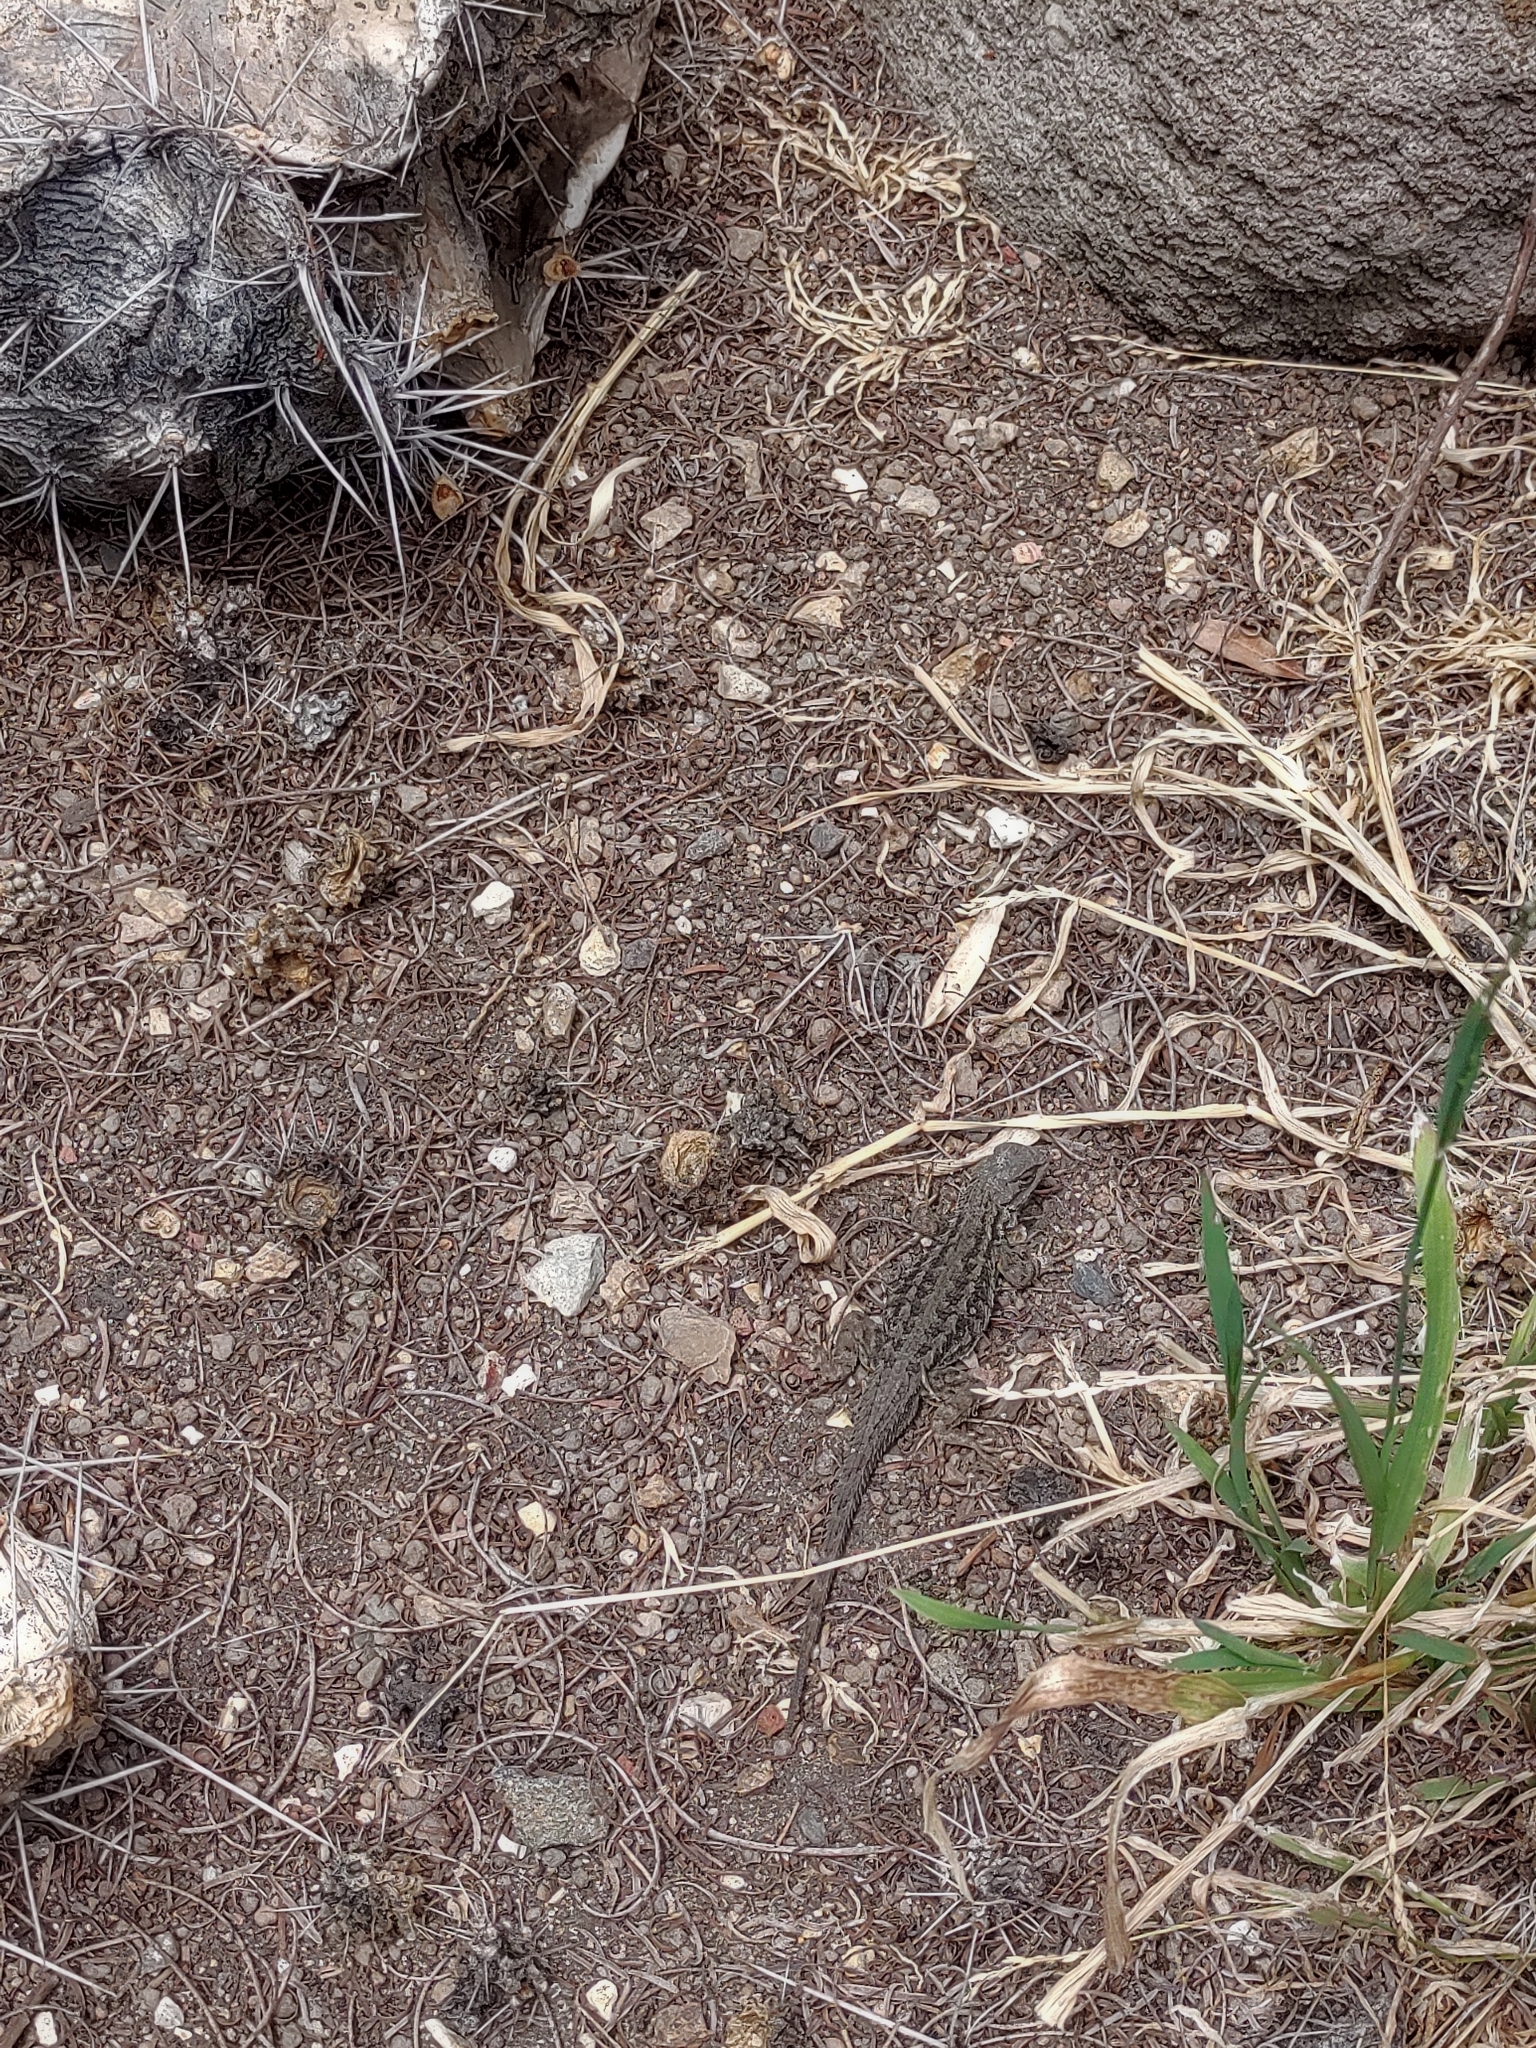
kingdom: Animalia
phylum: Chordata
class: Squamata
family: Phrynosomatidae
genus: Sceloporus
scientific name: Sceloporus occidentalis
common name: Western fence lizard
